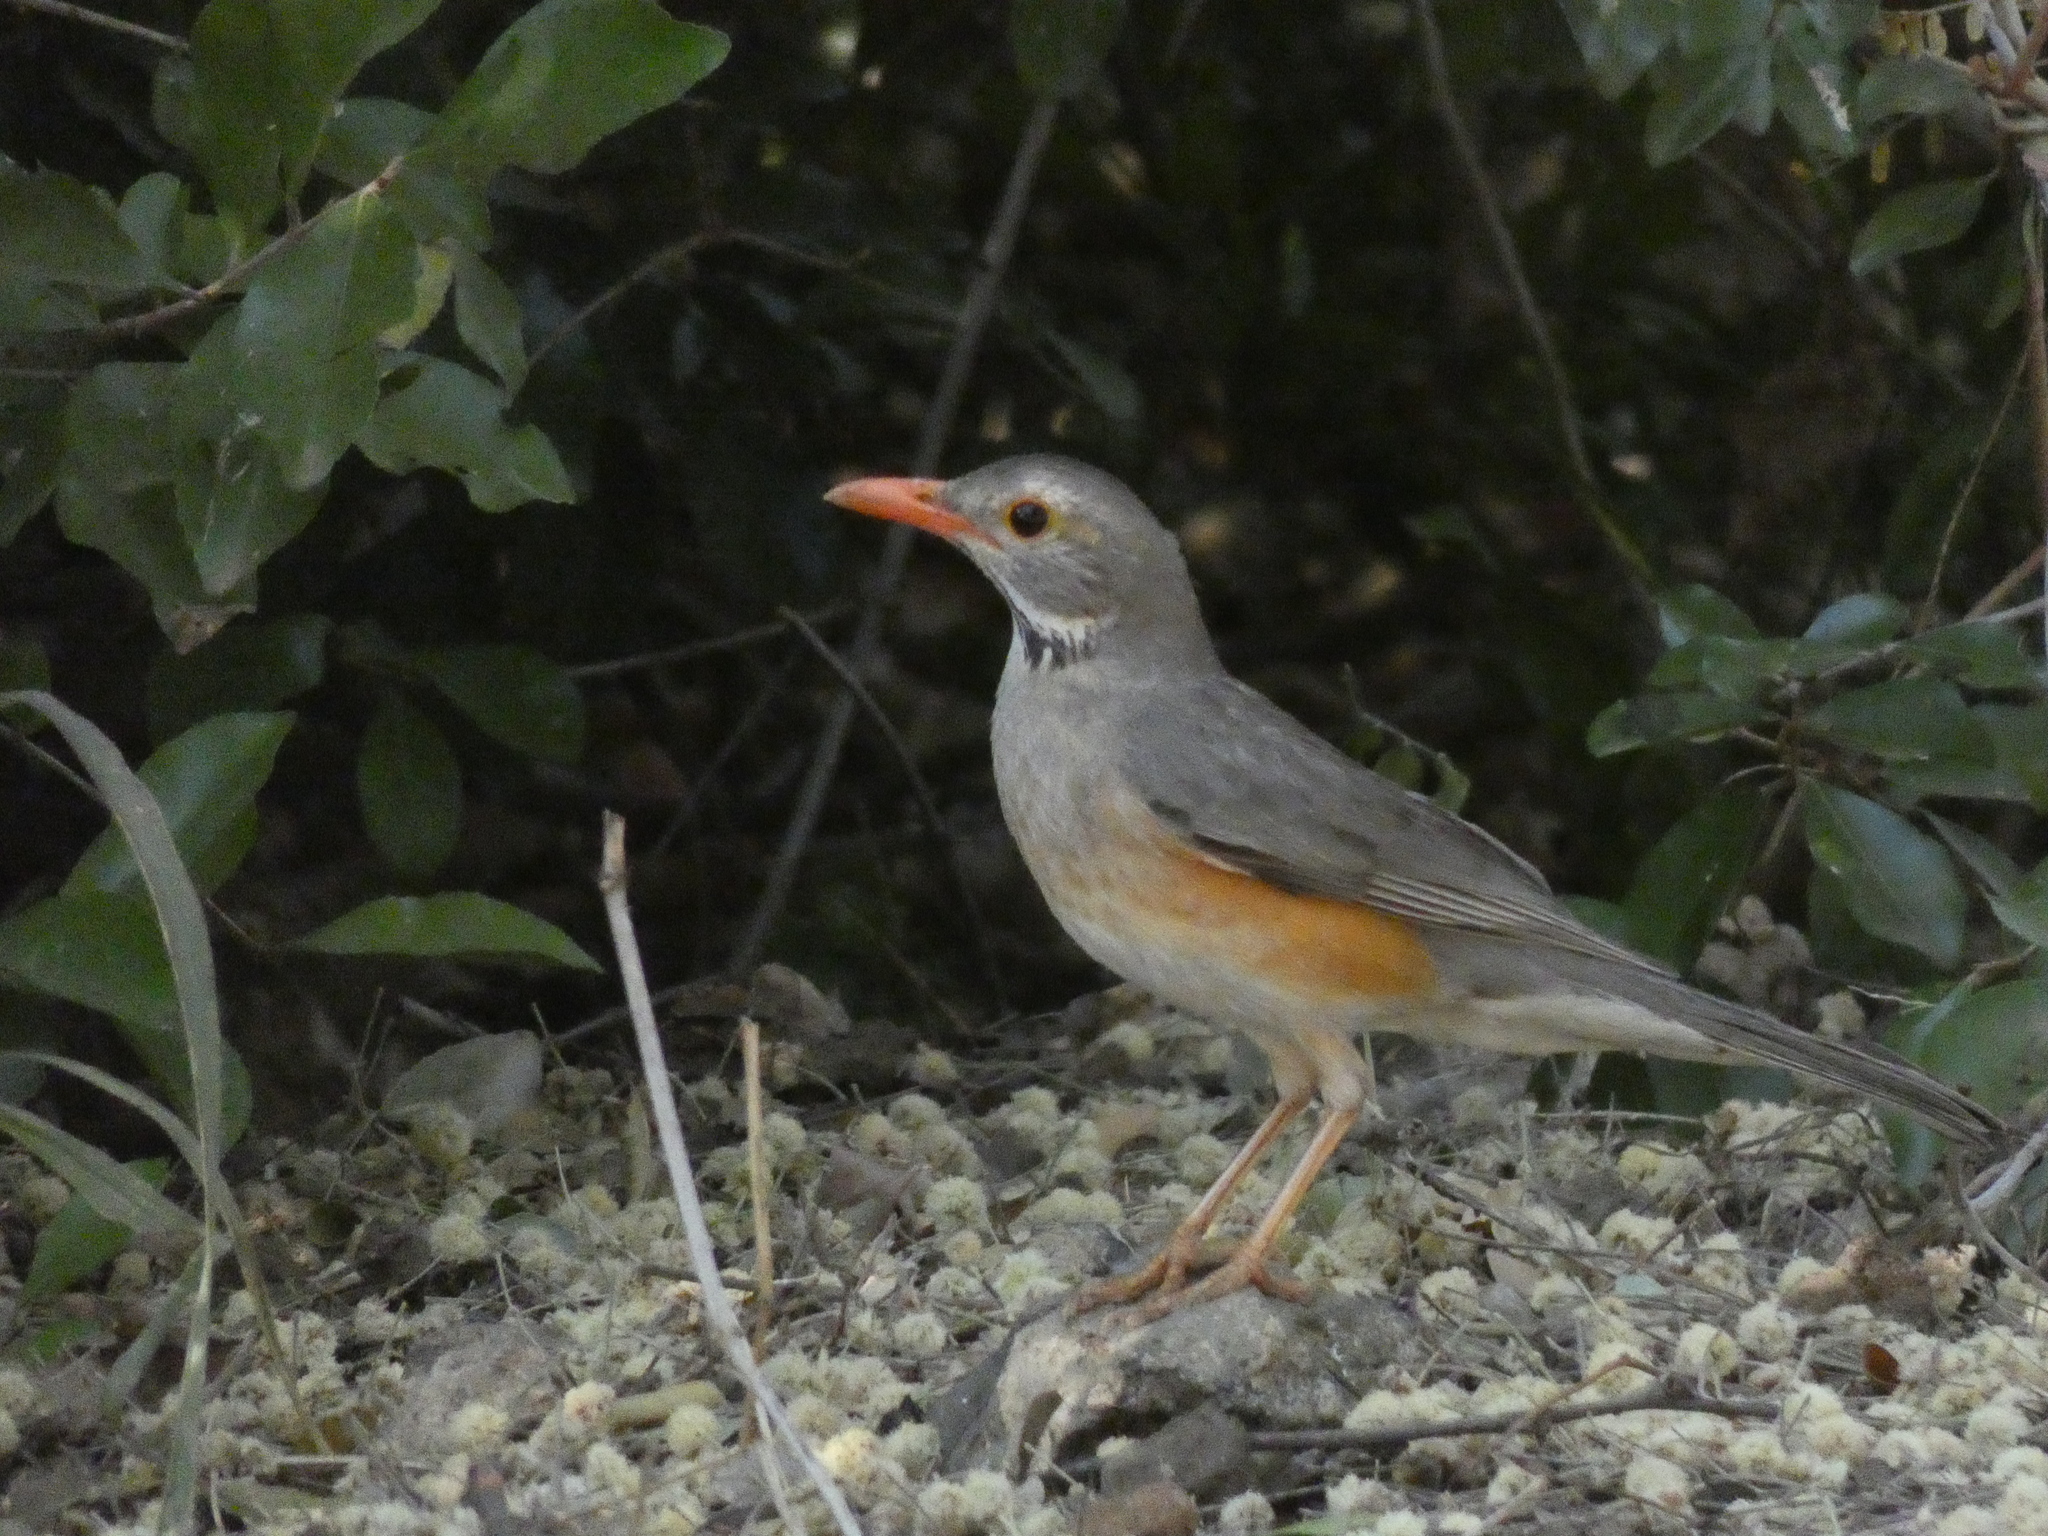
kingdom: Animalia
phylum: Chordata
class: Aves
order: Passeriformes
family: Turdidae
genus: Turdus
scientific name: Turdus libonyana
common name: Kurrichane thrush
